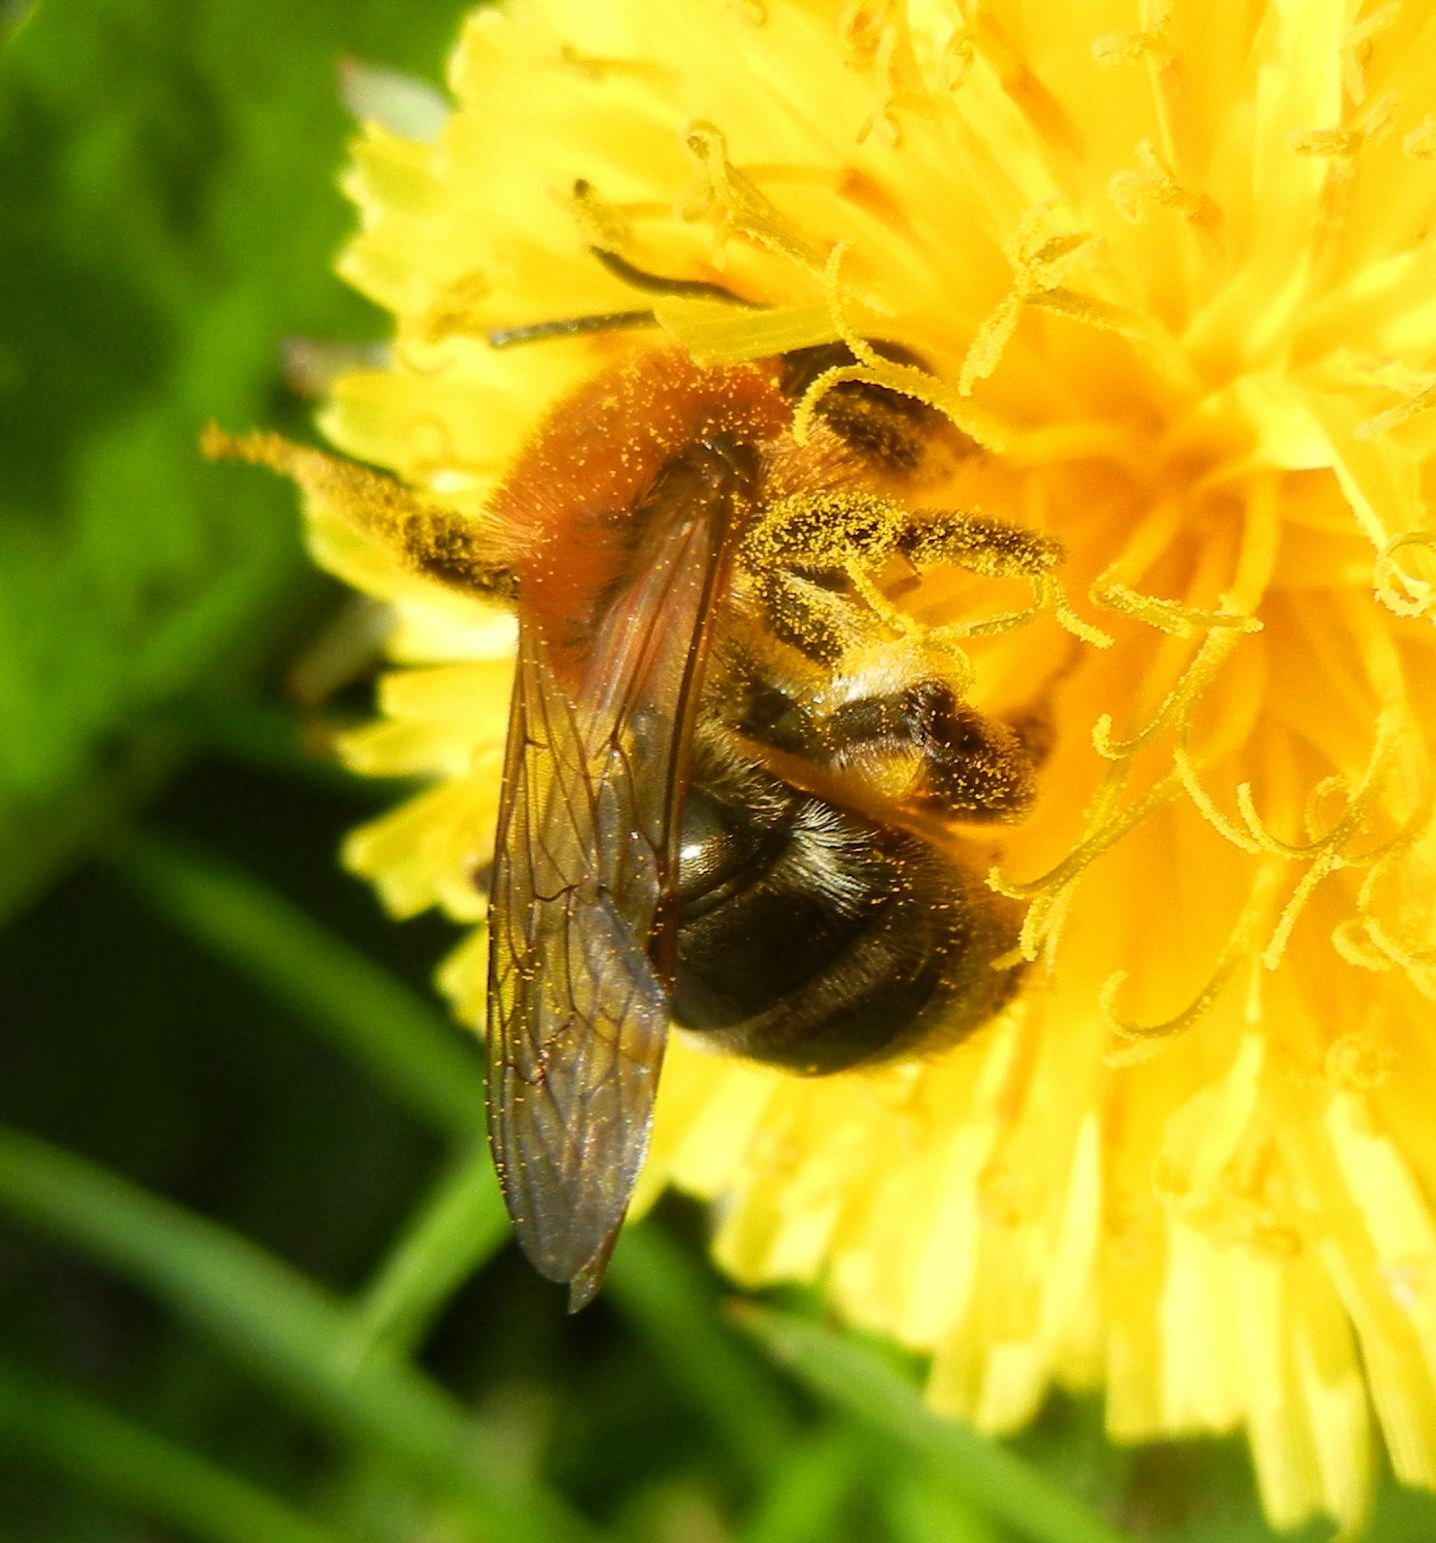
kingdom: Animalia
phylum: Arthropoda
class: Insecta
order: Hymenoptera
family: Andrenidae
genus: Andrena
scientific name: Andrena nitida
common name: Grey-patched mining bee
